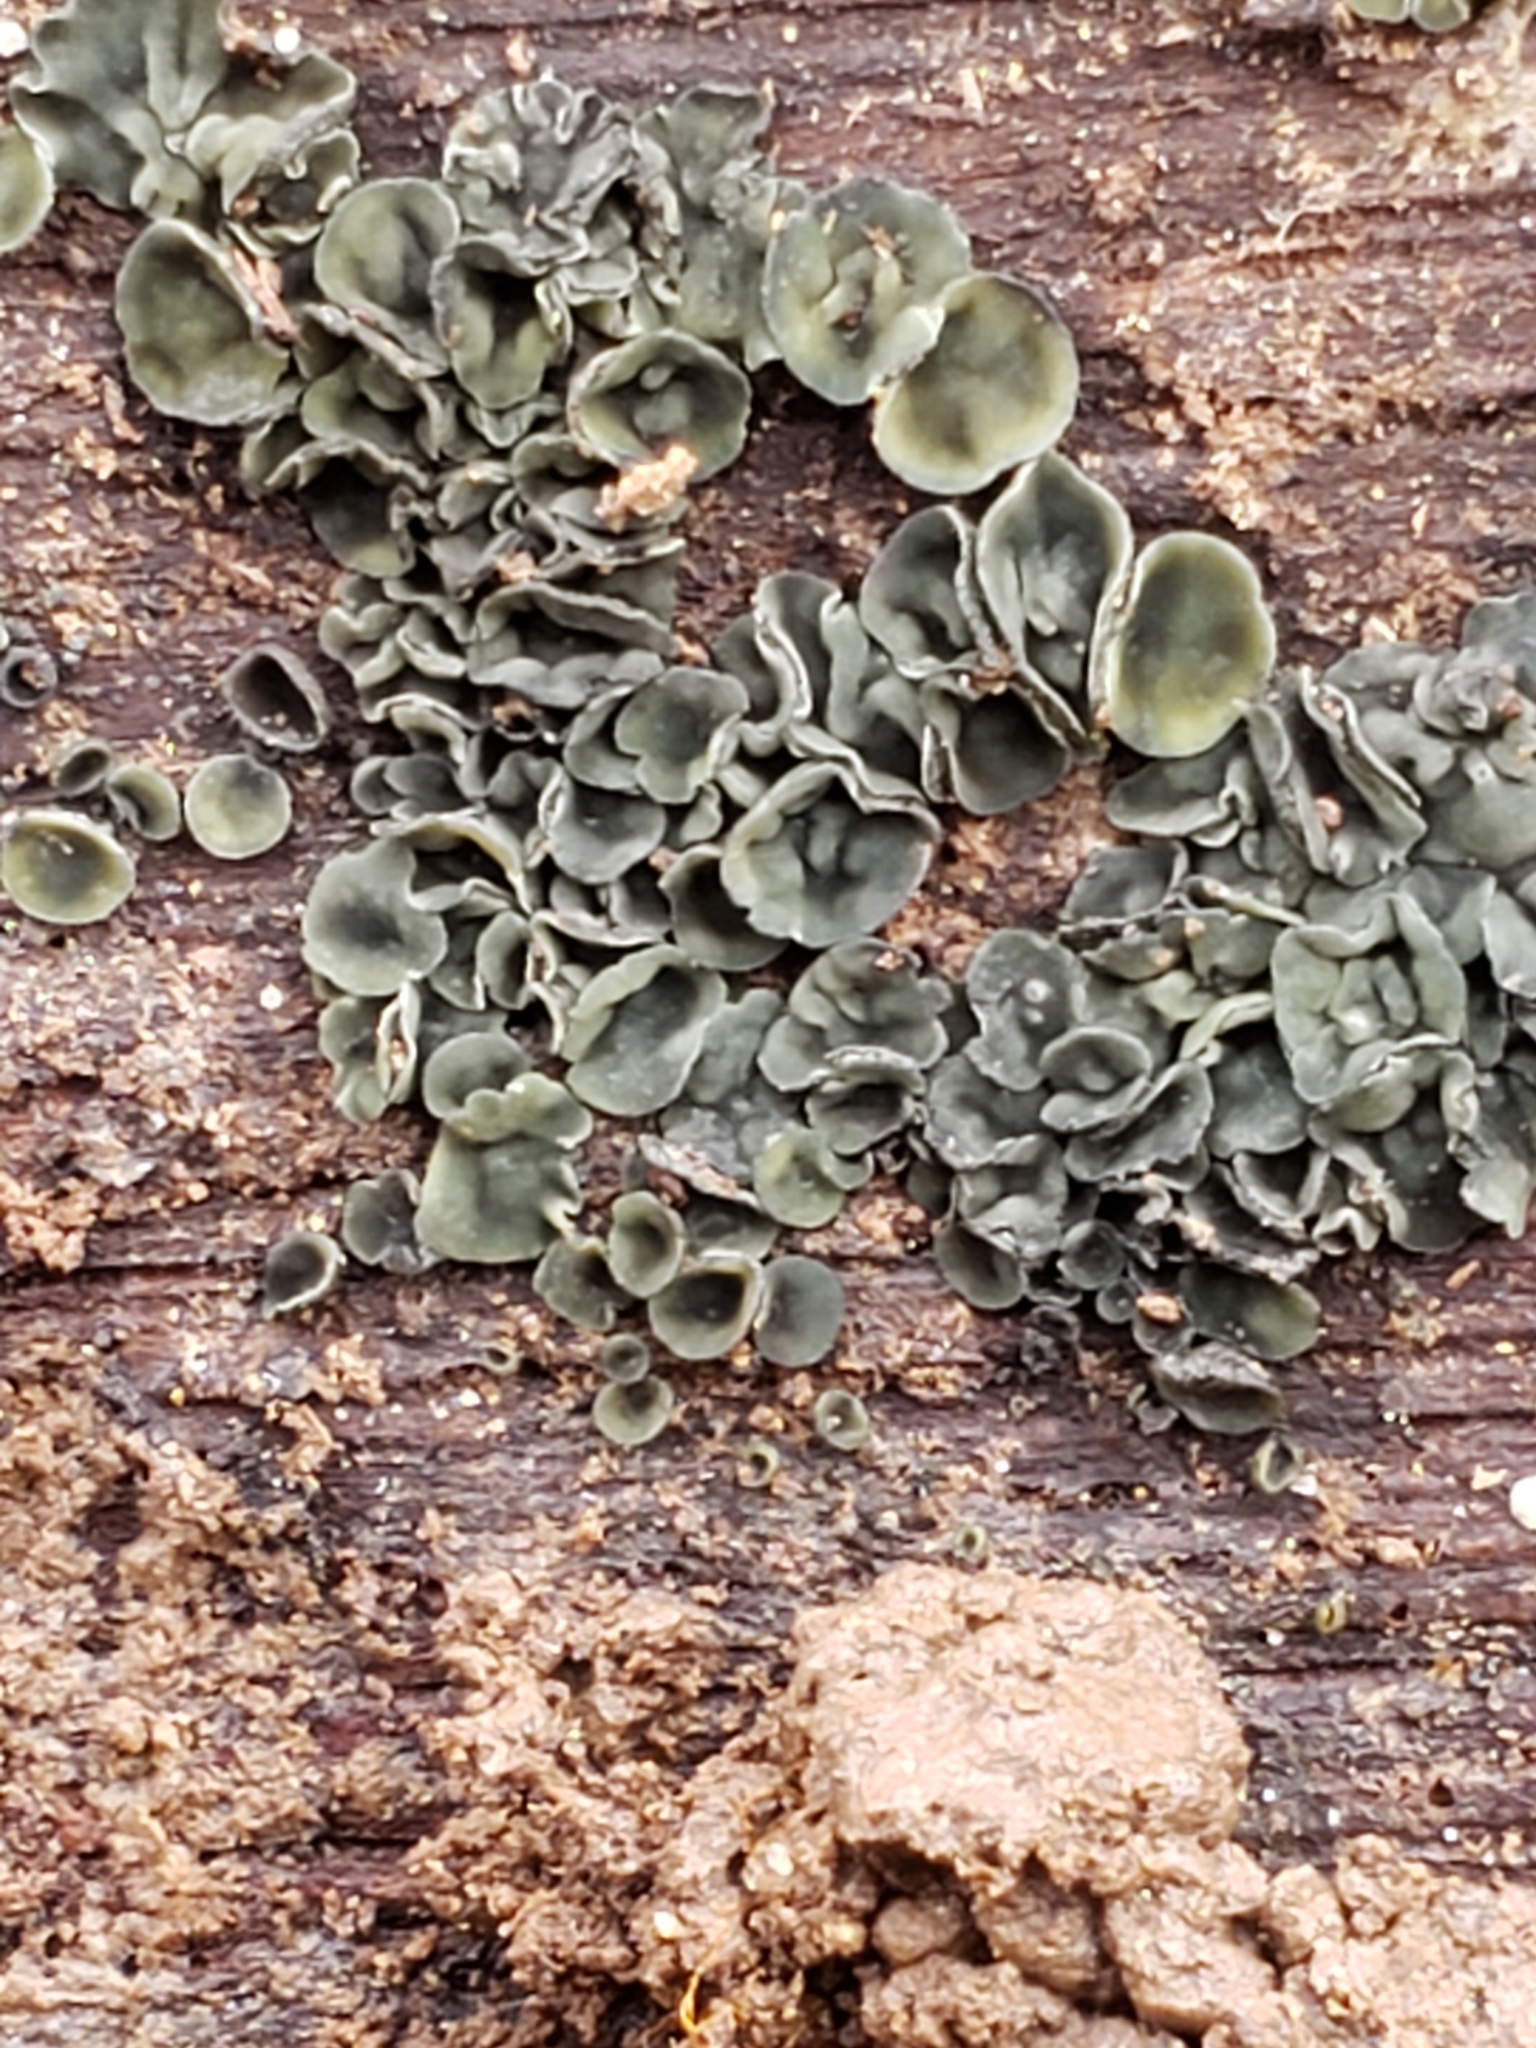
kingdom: Fungi
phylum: Ascomycota
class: Leotiomycetes
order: Helotiales
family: Chlorospleniaceae
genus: Chlorosplenium
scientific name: Chlorosplenium chlora
